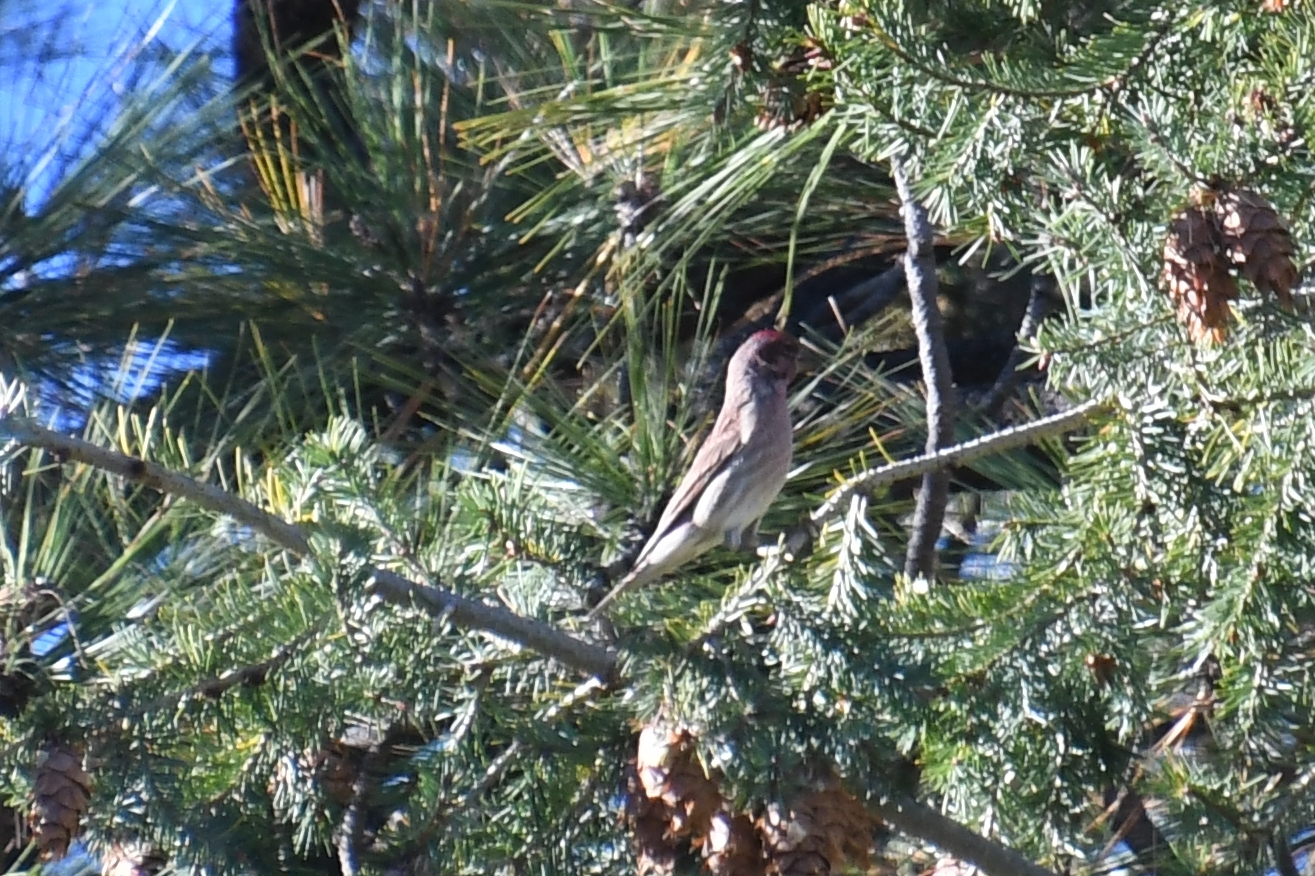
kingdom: Animalia
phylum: Chordata
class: Aves
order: Passeriformes
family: Fringillidae
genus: Haemorhous
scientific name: Haemorhous cassinii
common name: Cassin's finch
